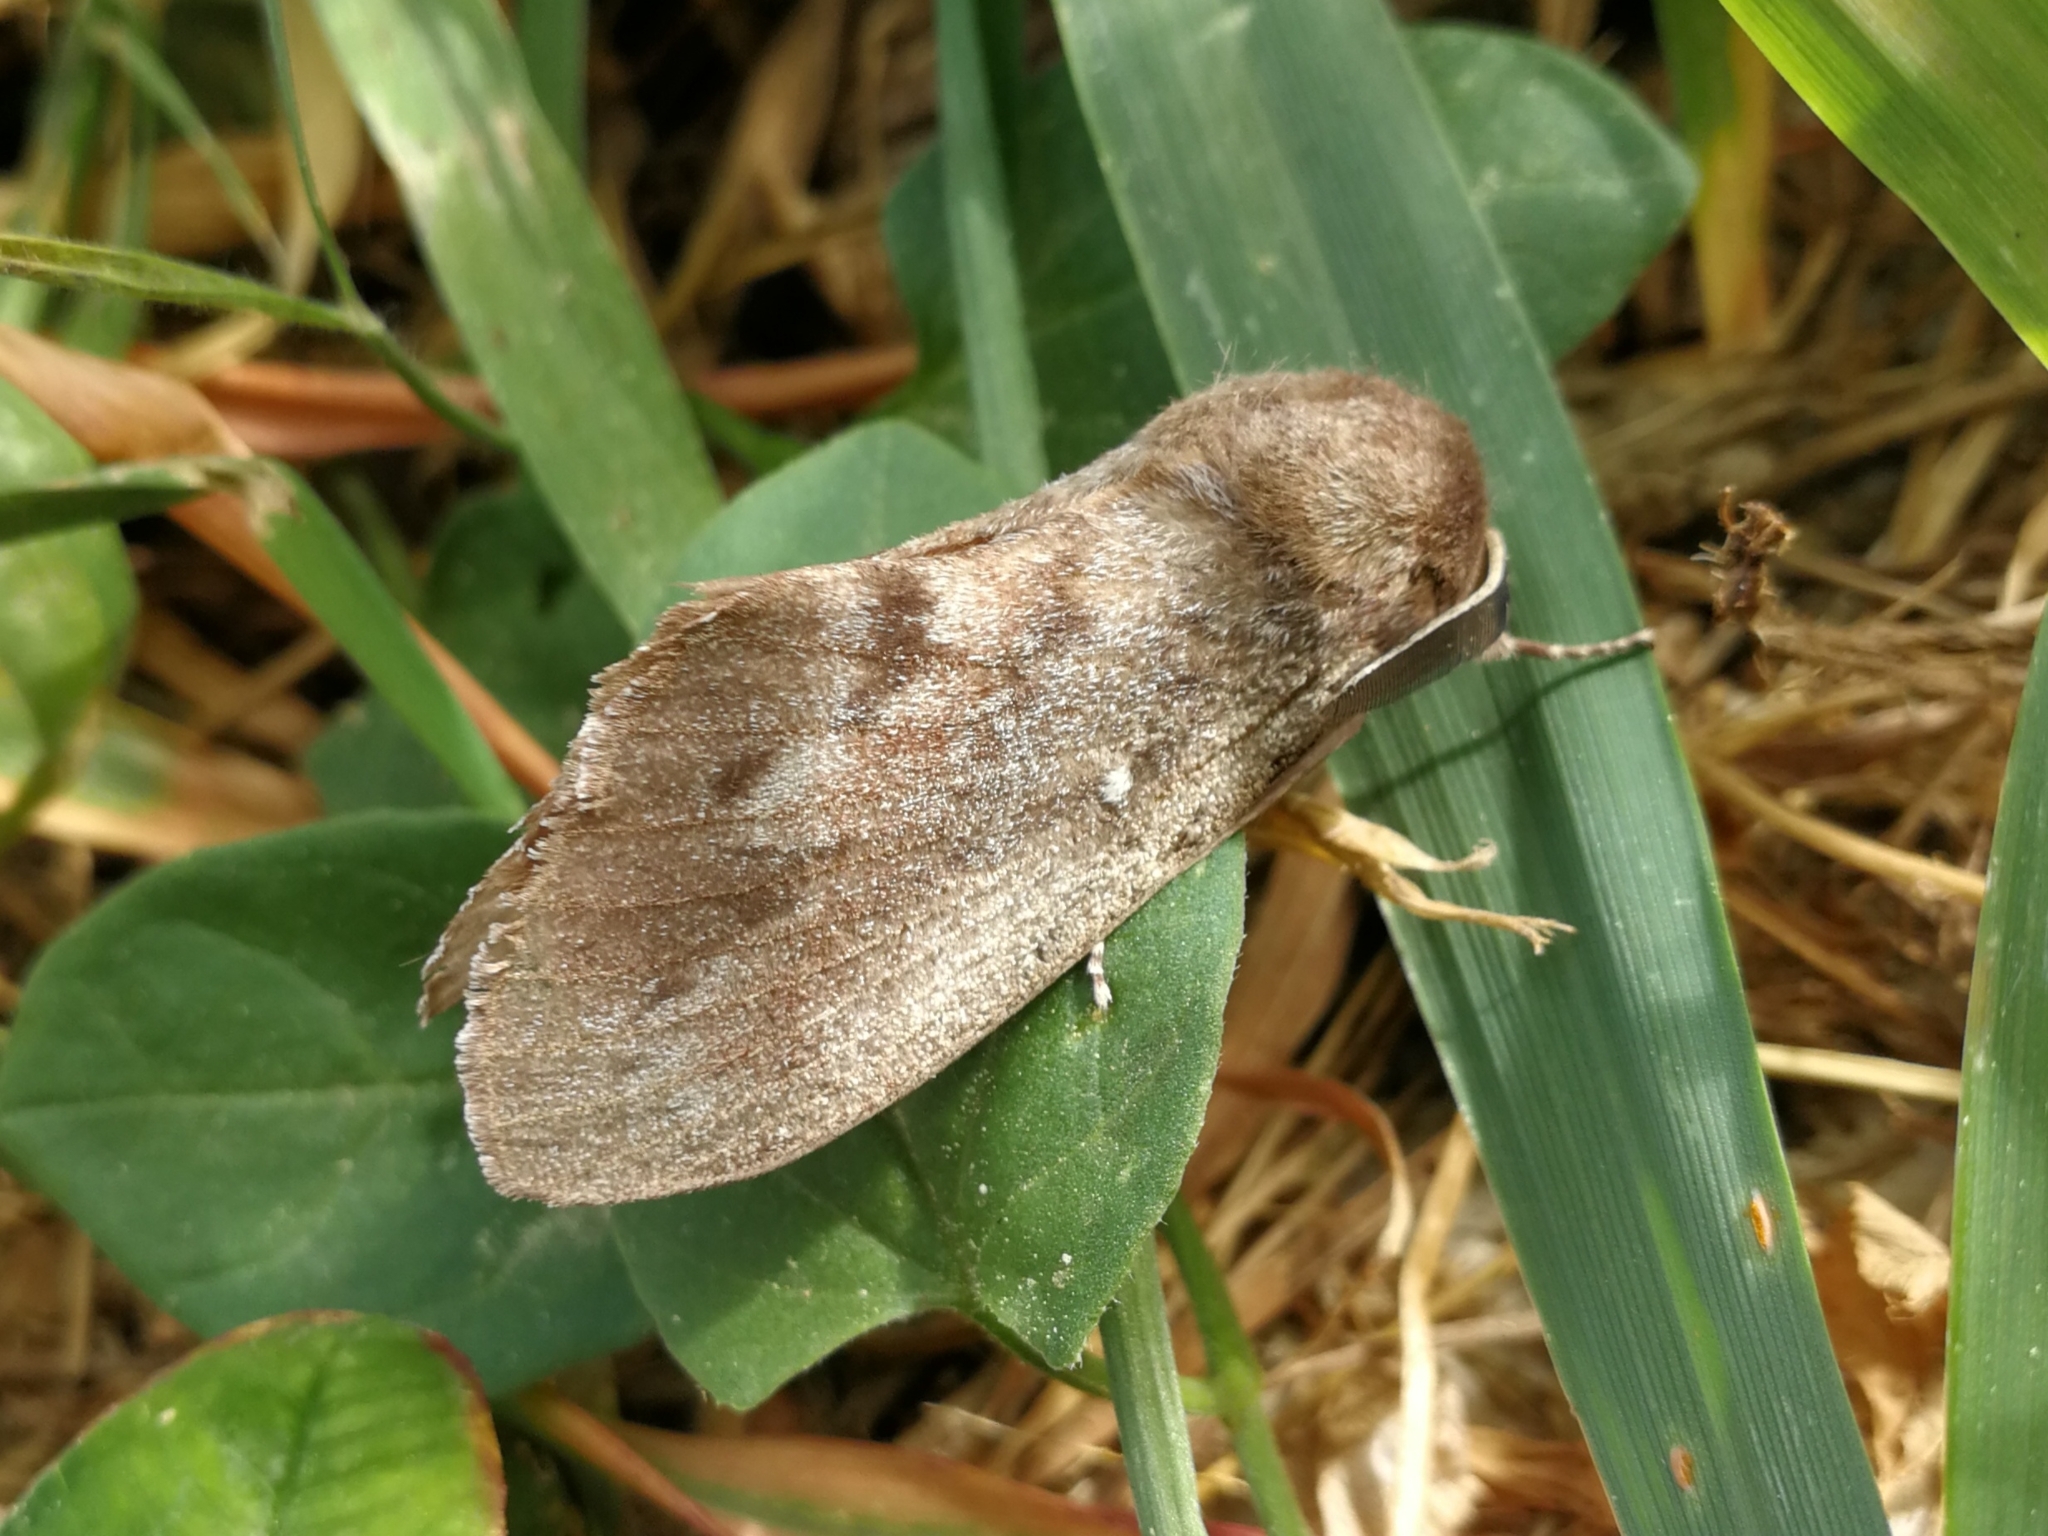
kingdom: Animalia
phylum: Arthropoda
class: Insecta
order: Lepidoptera
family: Lasiocampidae
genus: Dendrolimus
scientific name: Dendrolimus pini
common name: Pine-tree lappet
